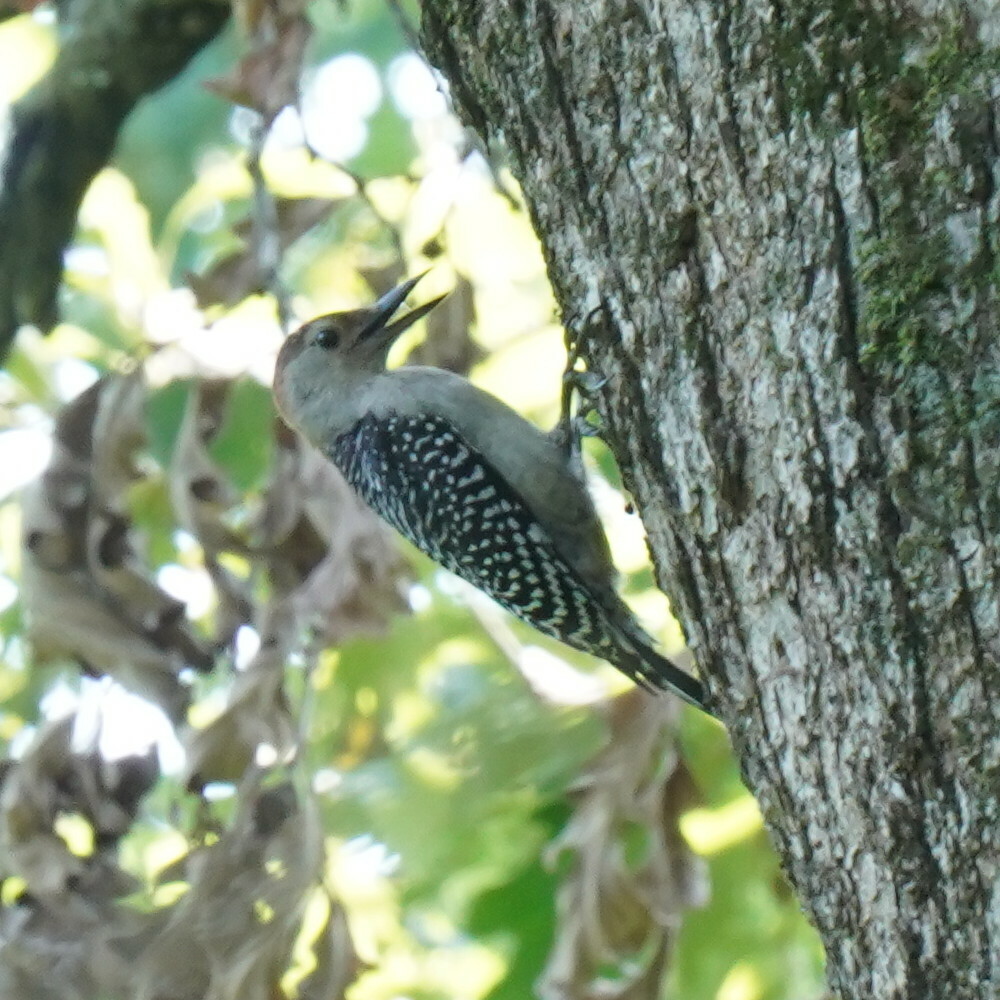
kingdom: Animalia
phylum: Chordata
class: Aves
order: Piciformes
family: Picidae
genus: Melanerpes
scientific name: Melanerpes carolinus
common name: Red-bellied woodpecker
